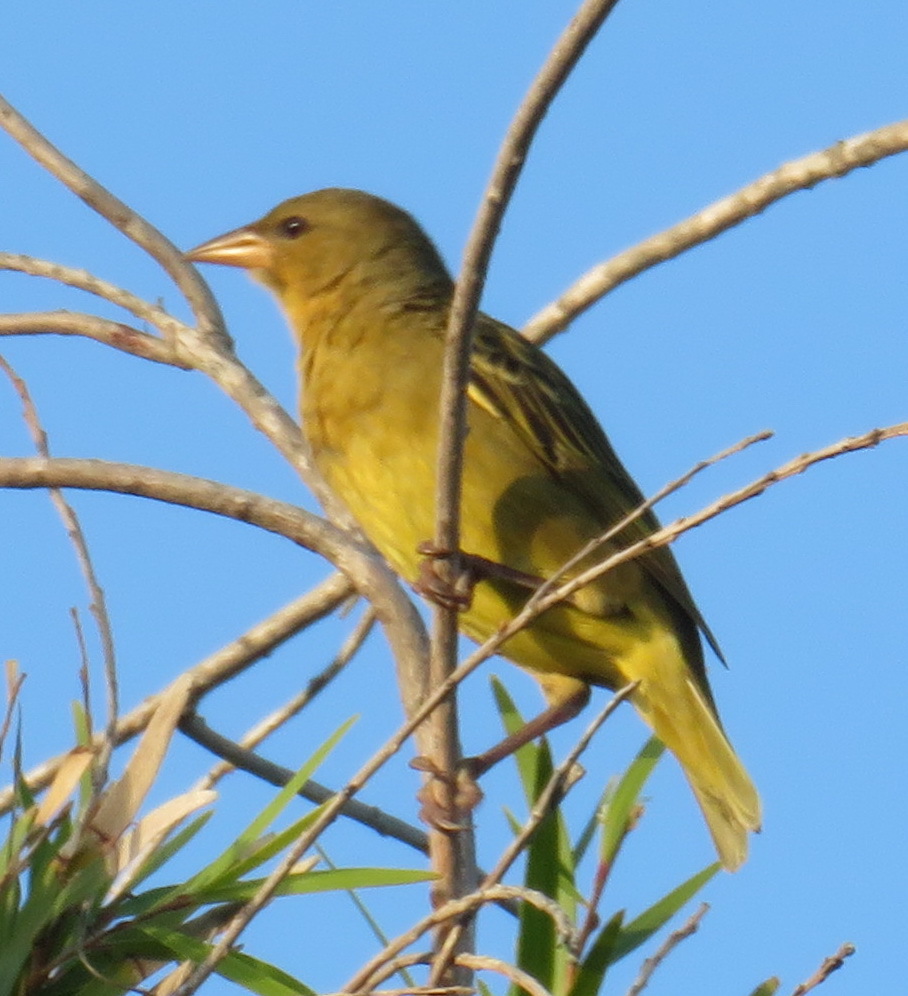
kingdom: Animalia
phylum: Chordata
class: Aves
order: Passeriformes
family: Ploceidae
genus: Ploceus
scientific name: Ploceus capensis
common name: Cape weaver
